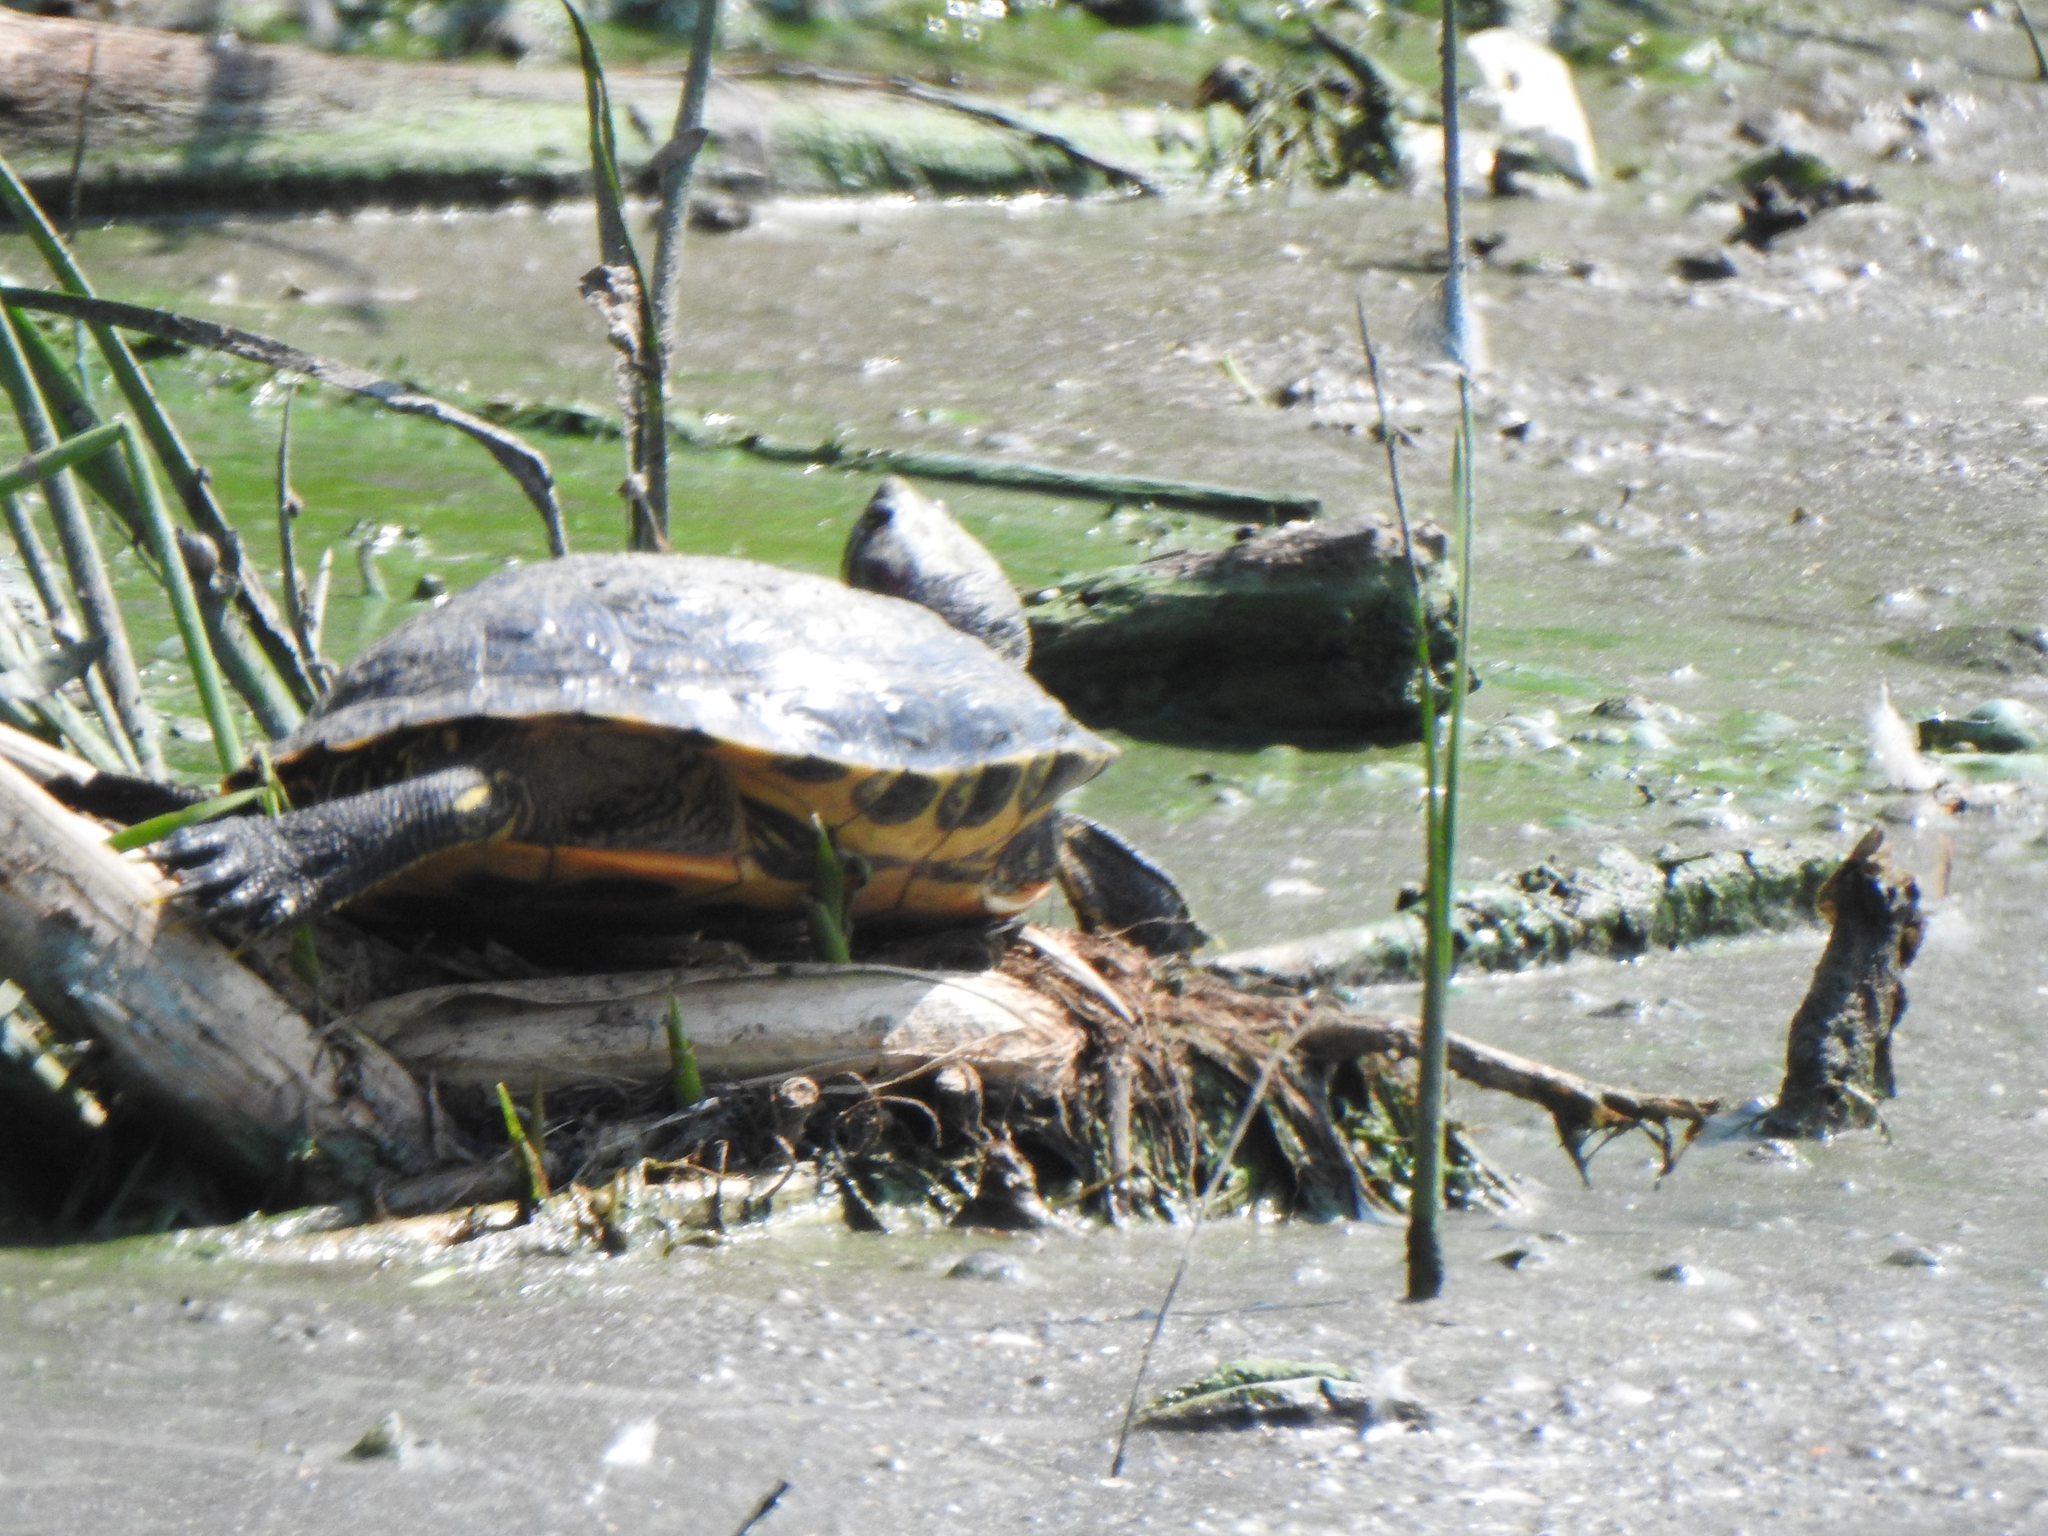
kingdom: Animalia
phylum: Chordata
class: Testudines
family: Emydidae
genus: Trachemys
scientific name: Trachemys scripta
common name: Slider
